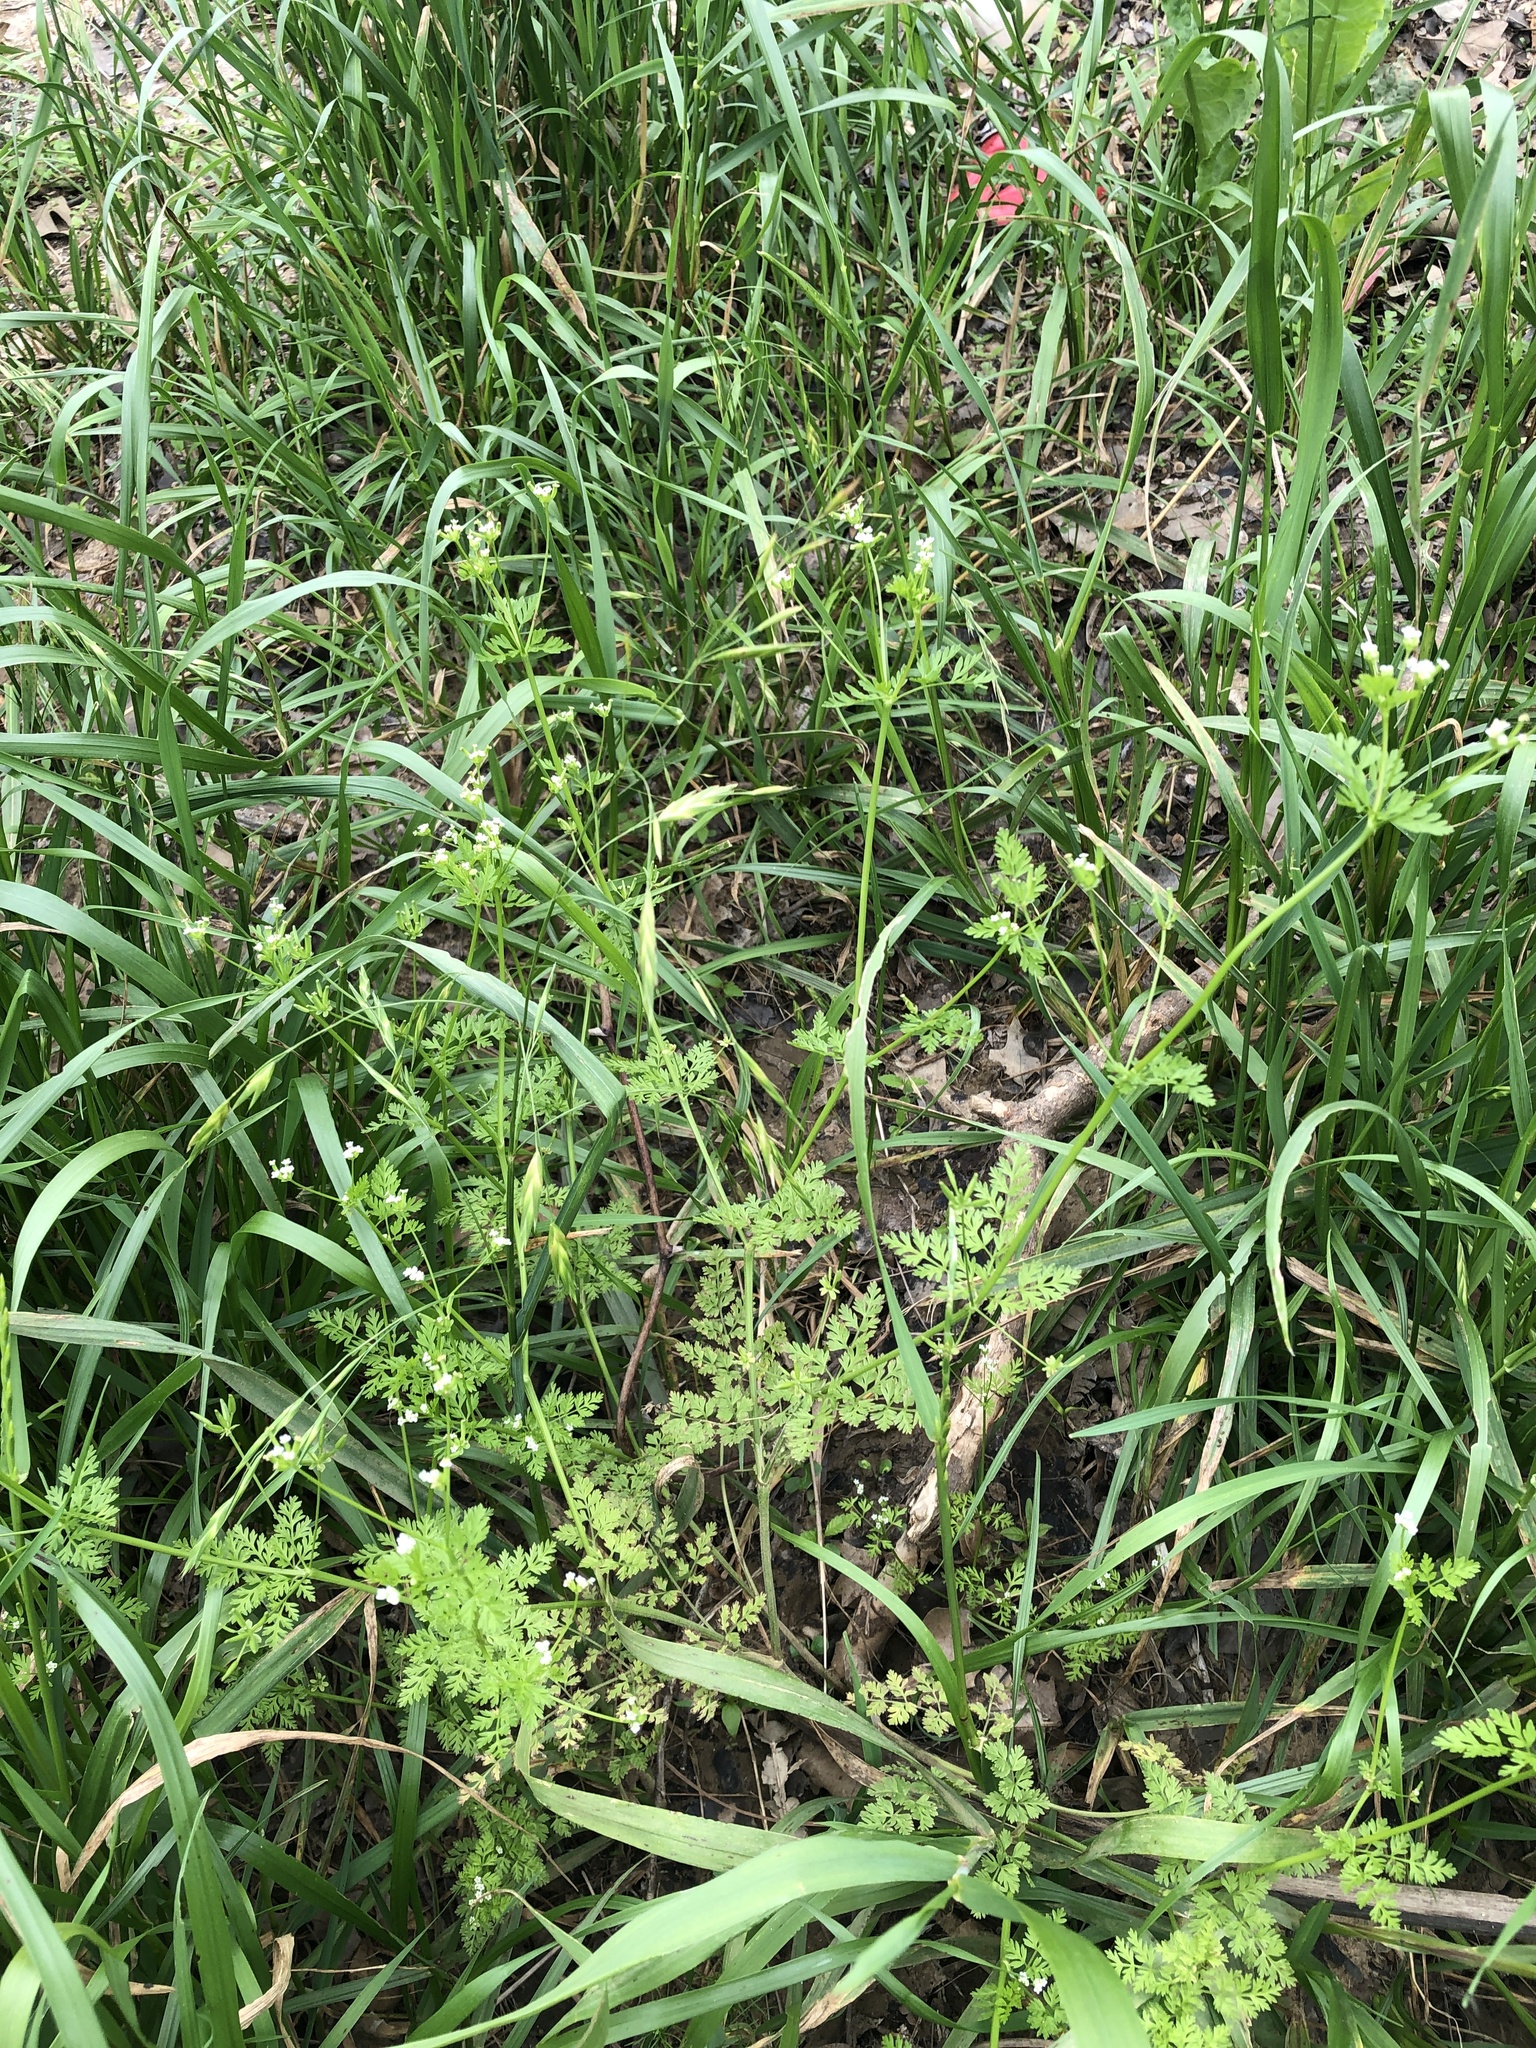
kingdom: Plantae
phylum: Tracheophyta
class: Magnoliopsida
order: Apiales
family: Apiaceae
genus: Chaerophyllum
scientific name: Chaerophyllum tainturieri
